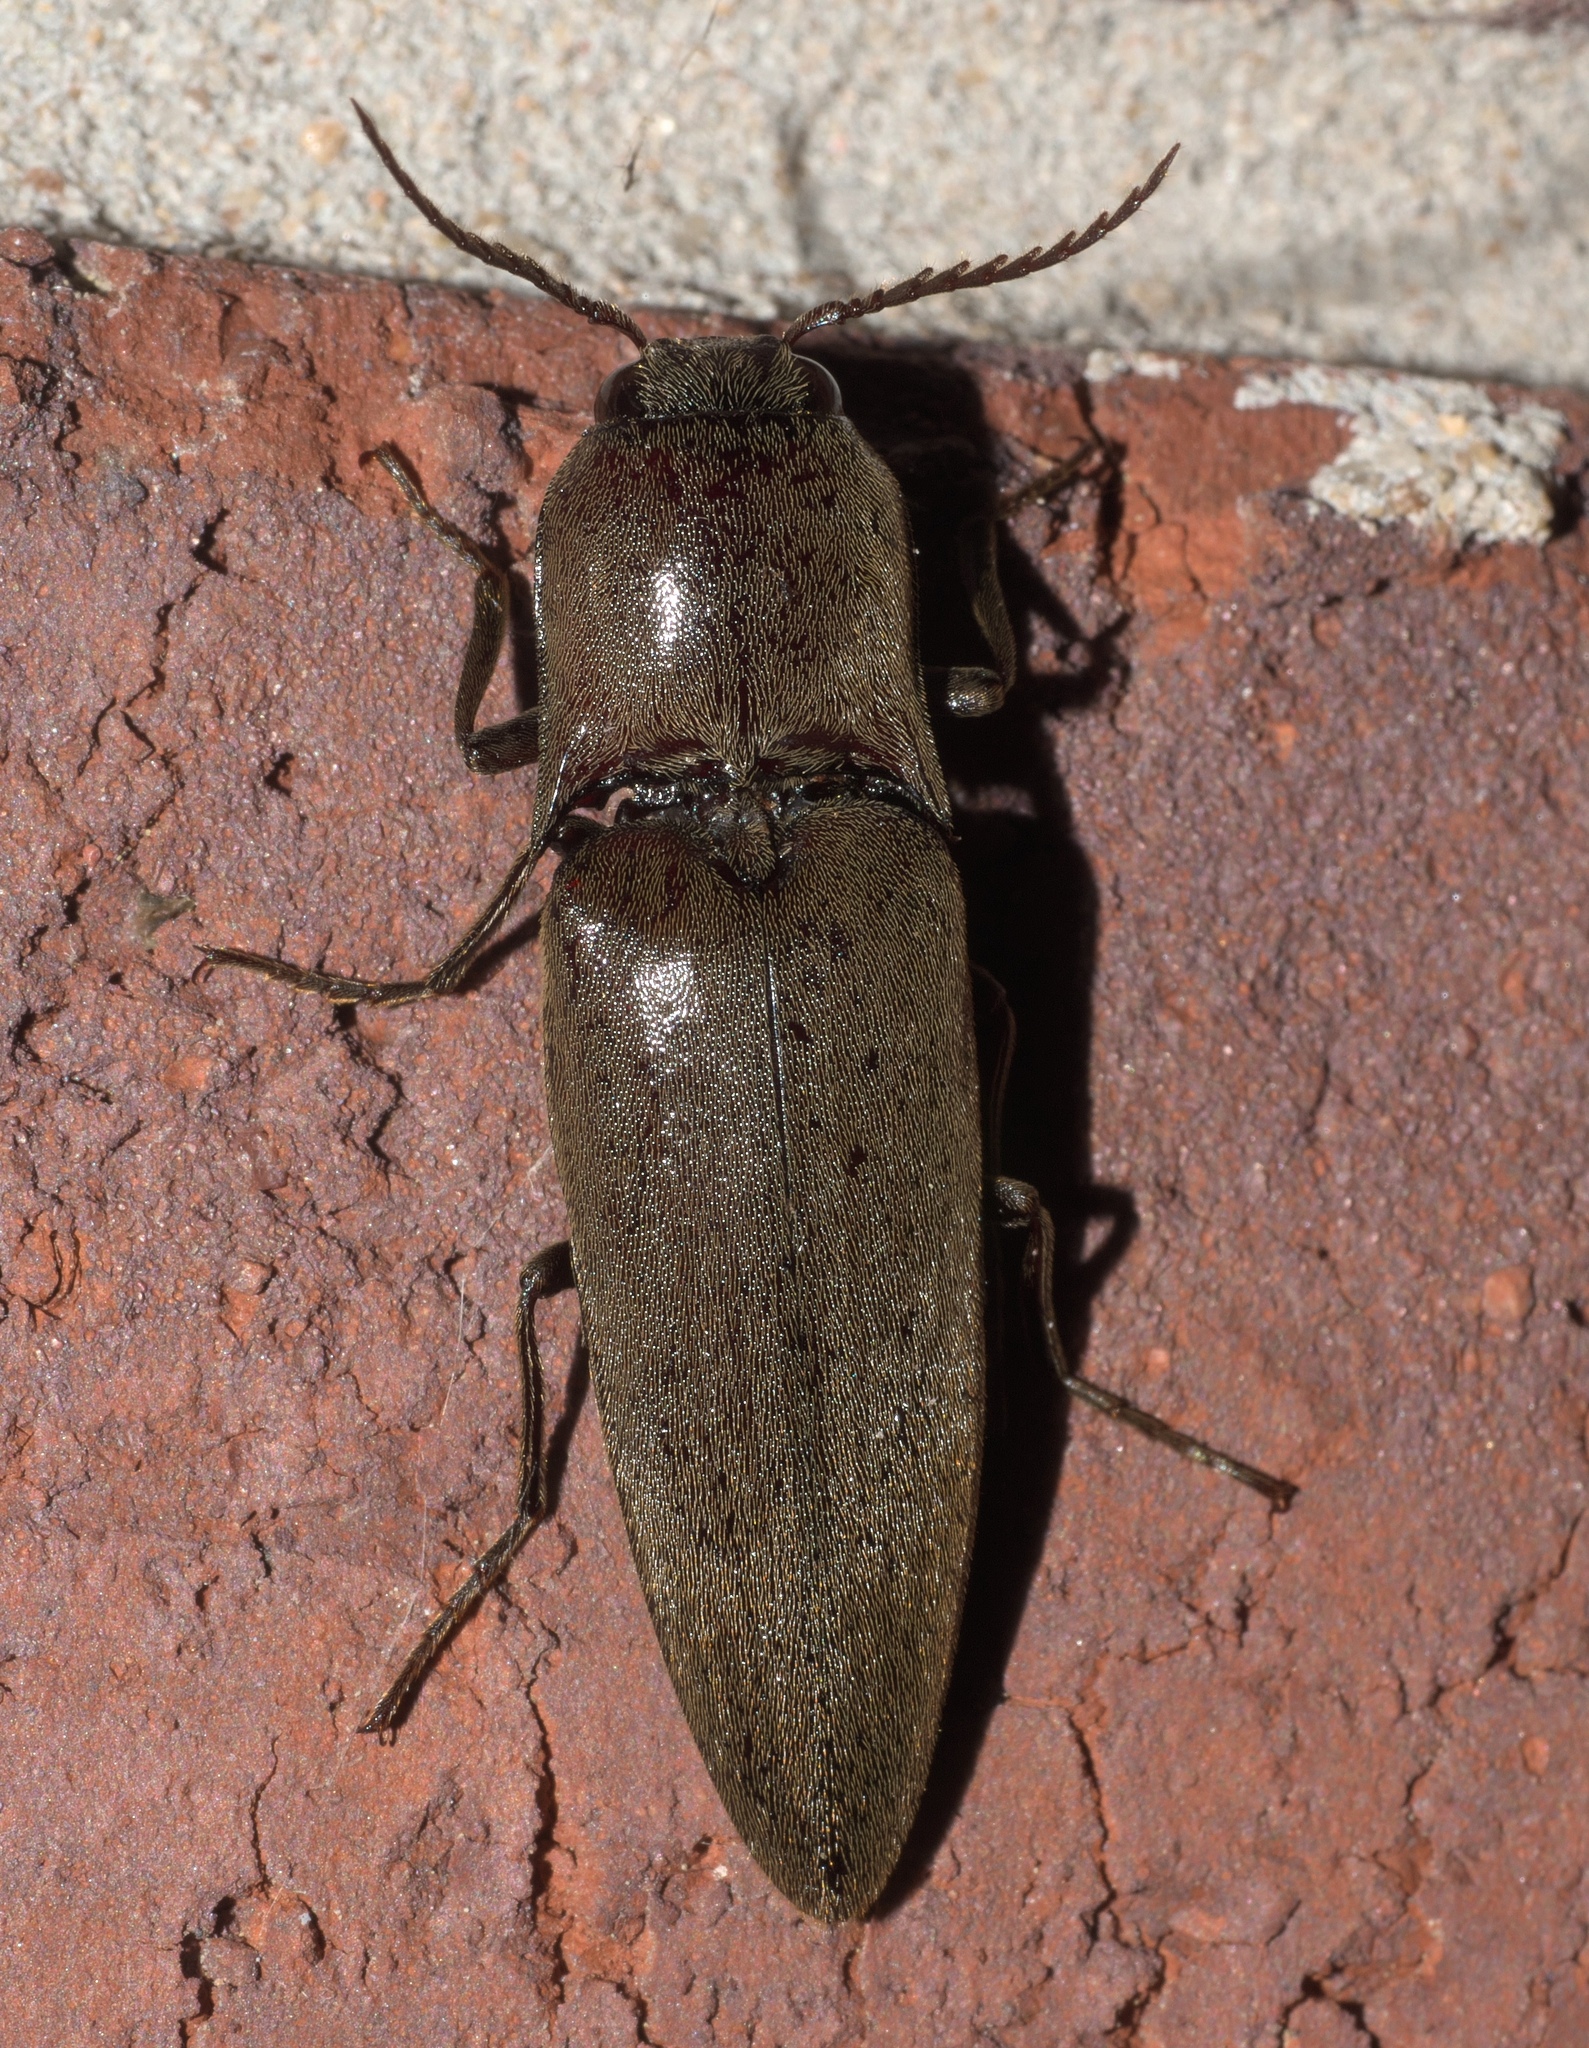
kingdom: Animalia
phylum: Arthropoda
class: Insecta
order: Coleoptera
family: Elateridae
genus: Orthostethus
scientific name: Orthostethus infuscatus
